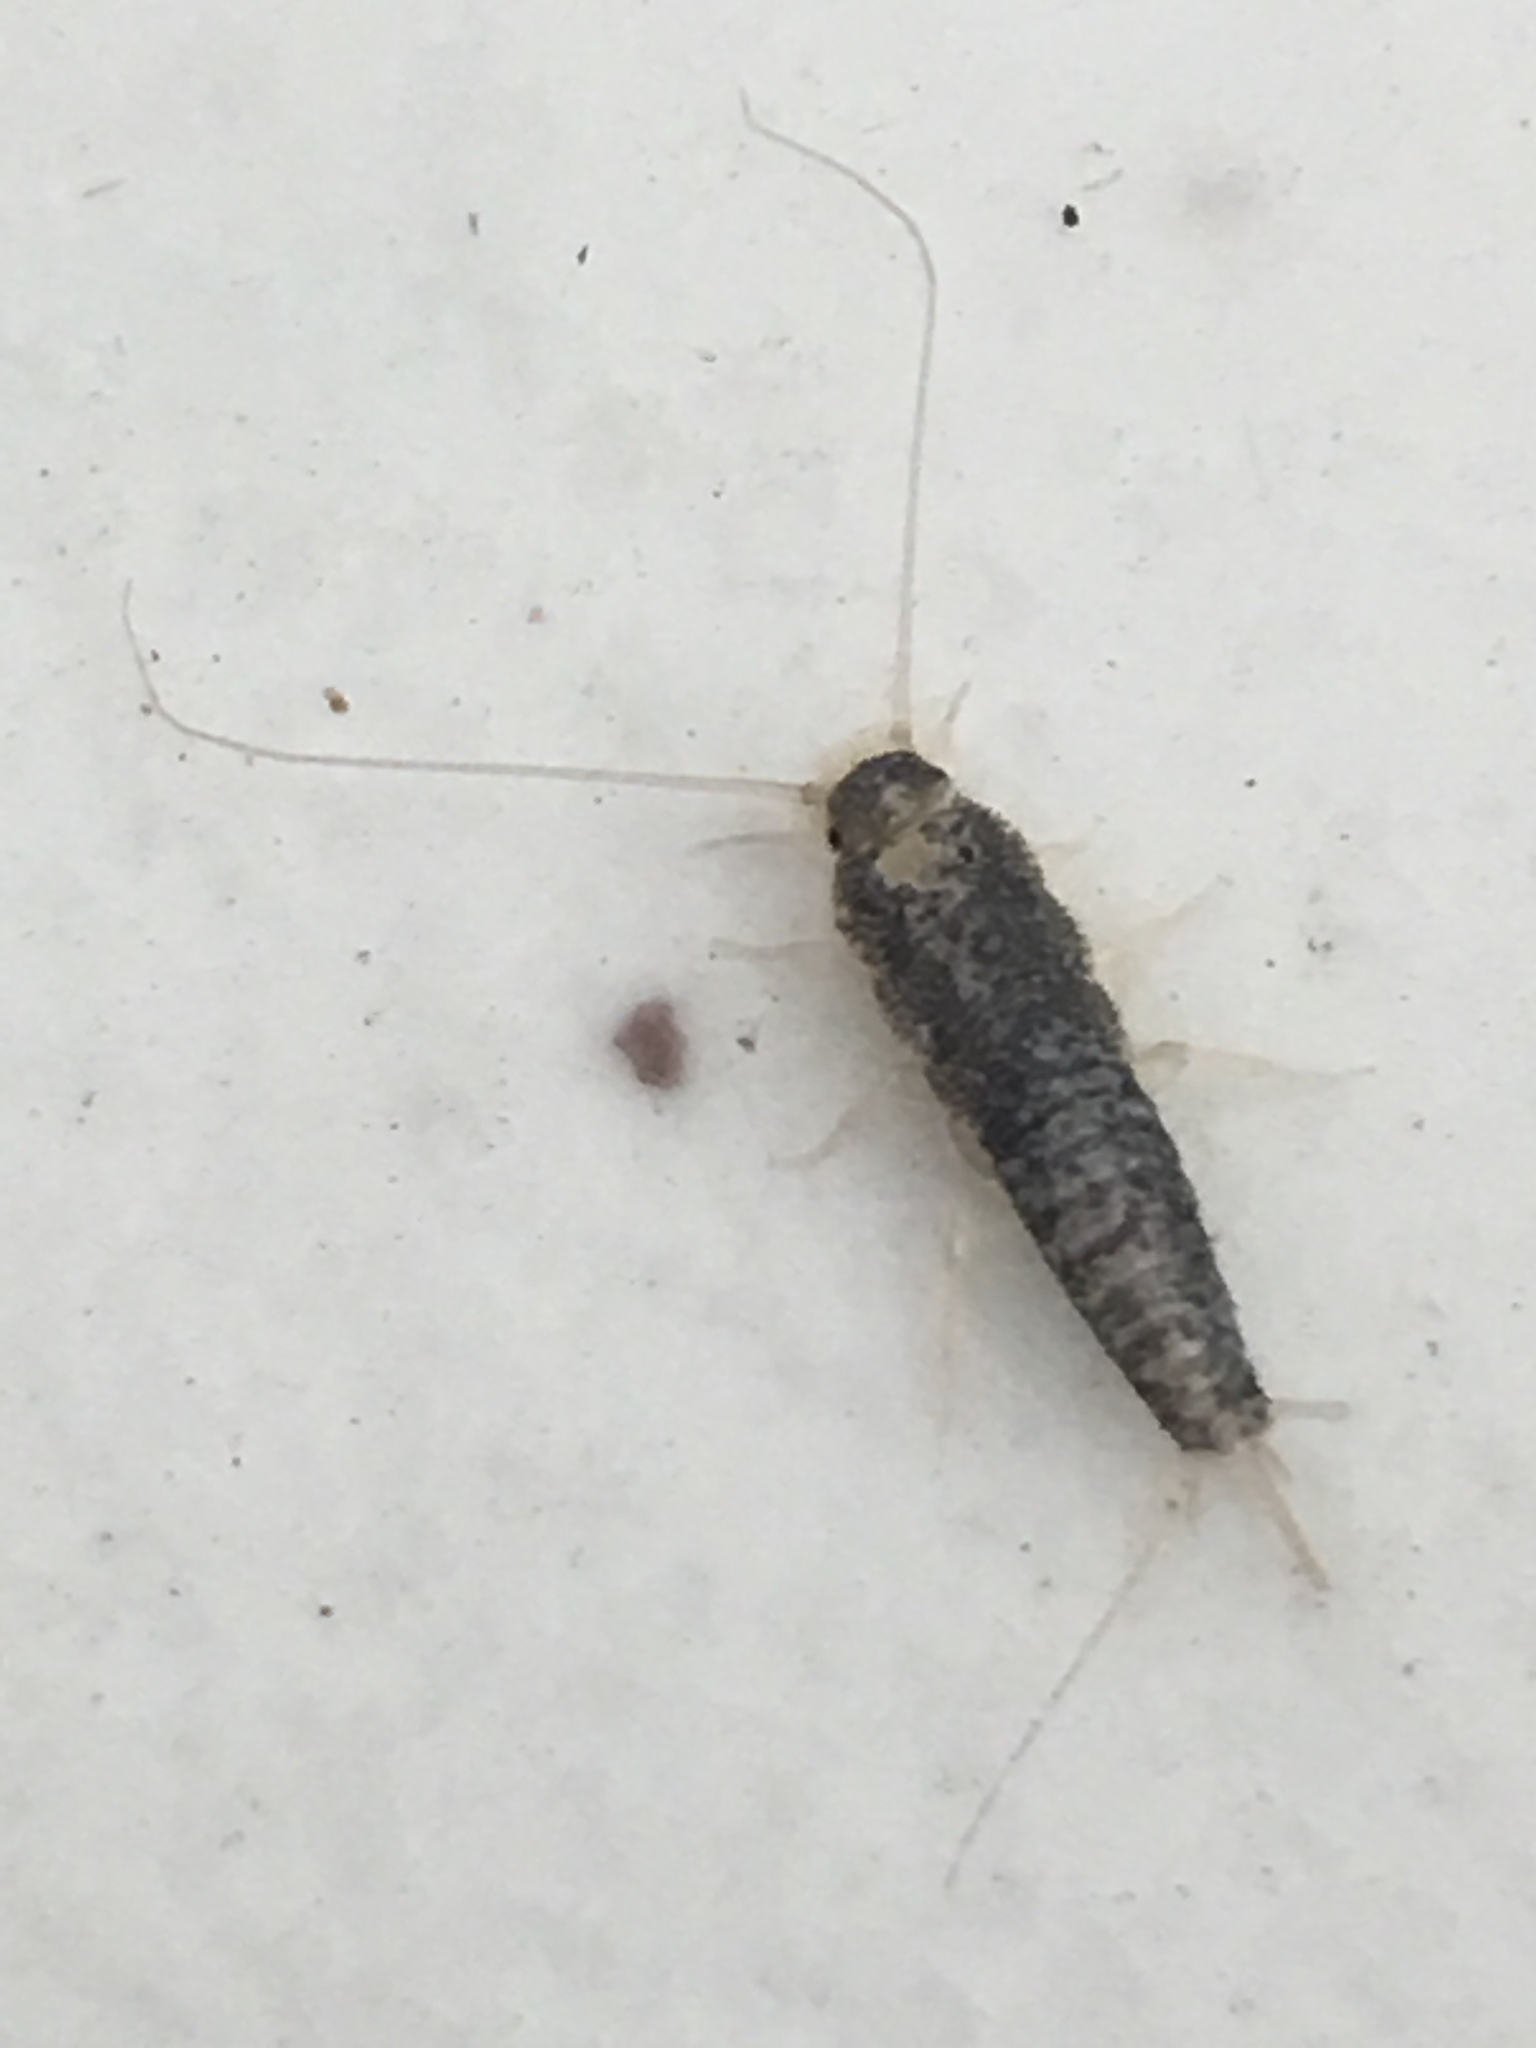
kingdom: Animalia
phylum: Arthropoda
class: Insecta
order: Zygentoma
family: Lepismatidae
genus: Ctenolepisma
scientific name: Ctenolepisma longicaudatum
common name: Silverfish
